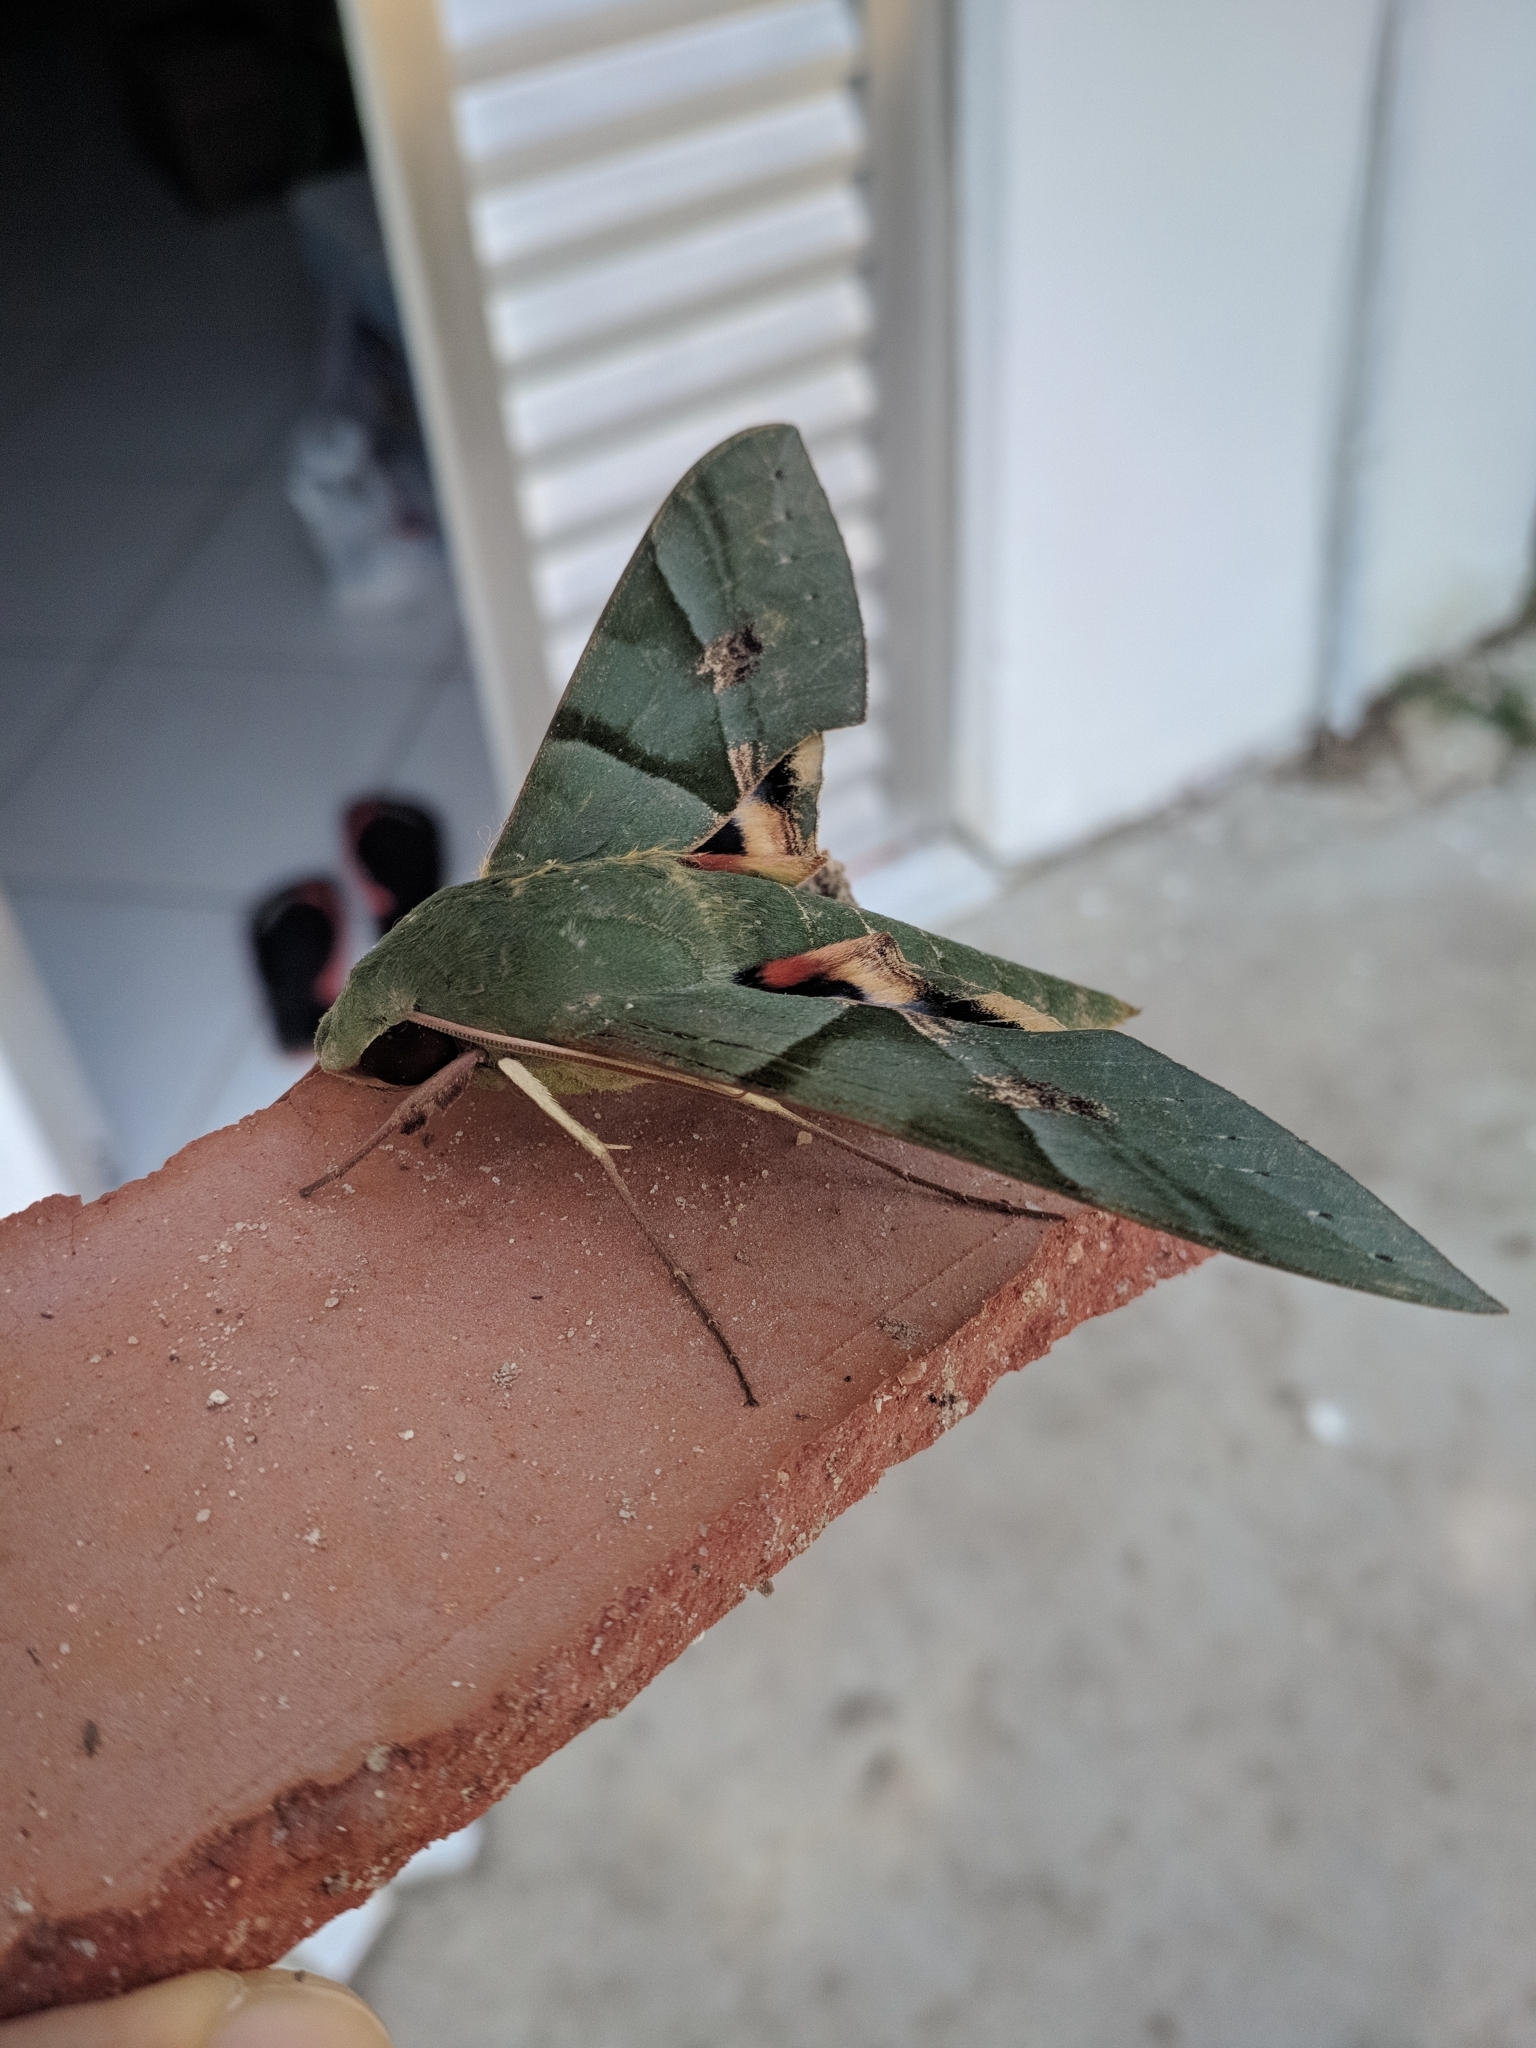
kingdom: Animalia
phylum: Arthropoda
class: Insecta
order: Lepidoptera
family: Sphingidae
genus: Eumorpha
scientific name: Eumorpha labruscae
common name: Gaudy sphinx
